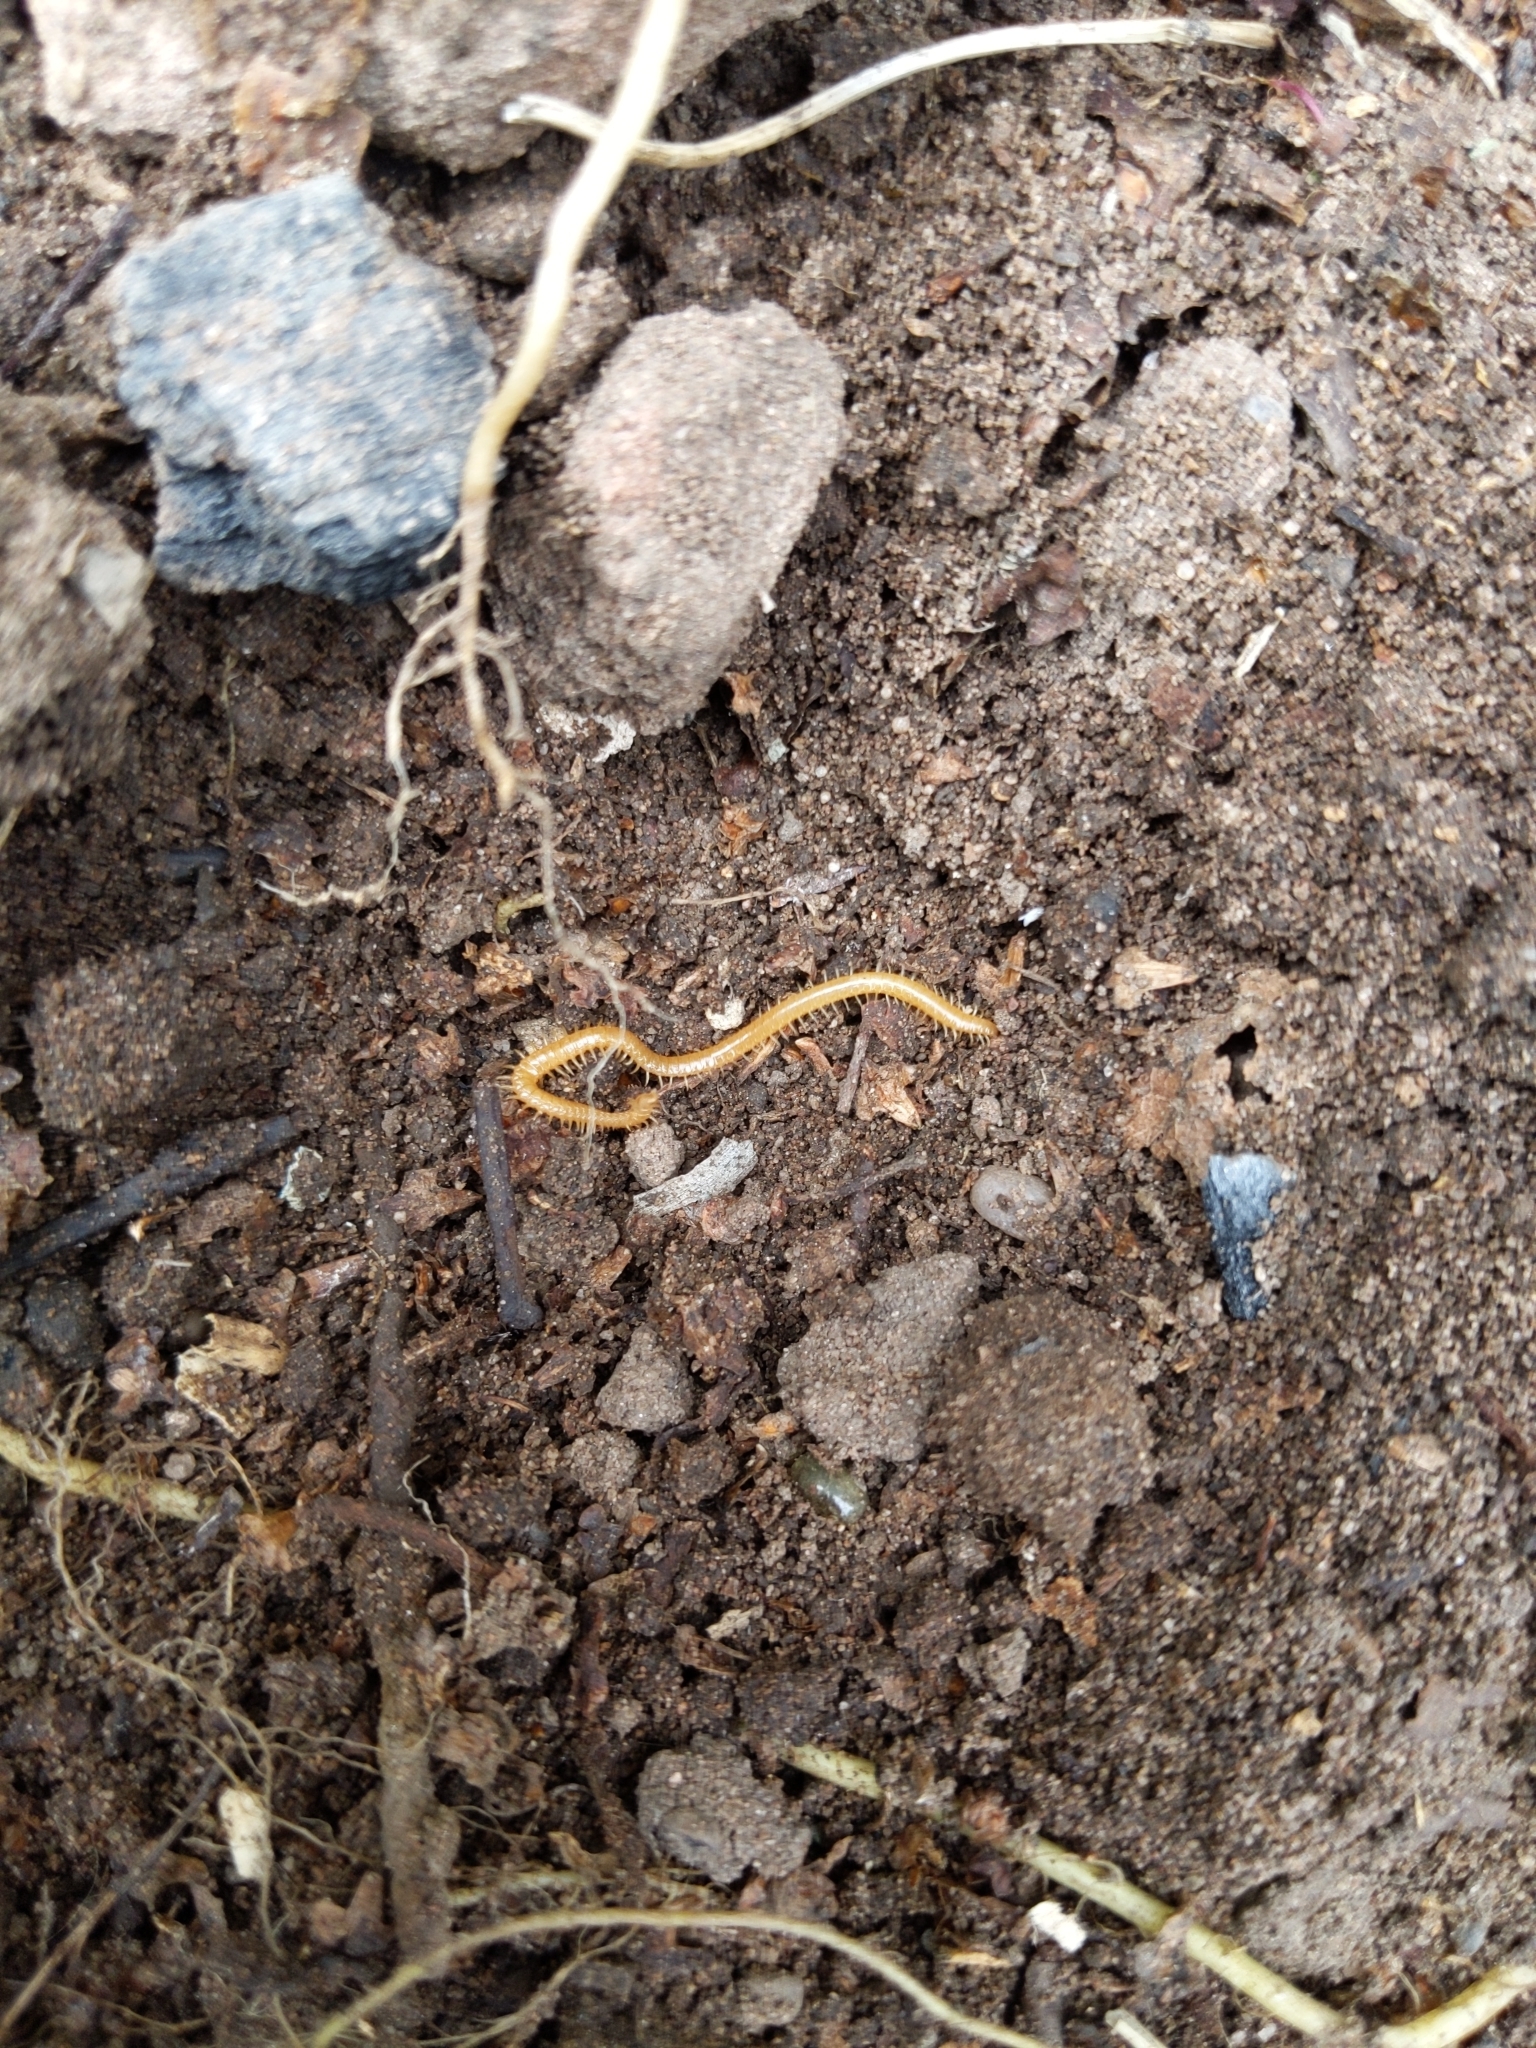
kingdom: Animalia
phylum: Arthropoda
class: Chilopoda
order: Geophilomorpha
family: Himantariidae
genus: Stigmatogaster
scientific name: Stigmatogaster subterranea
